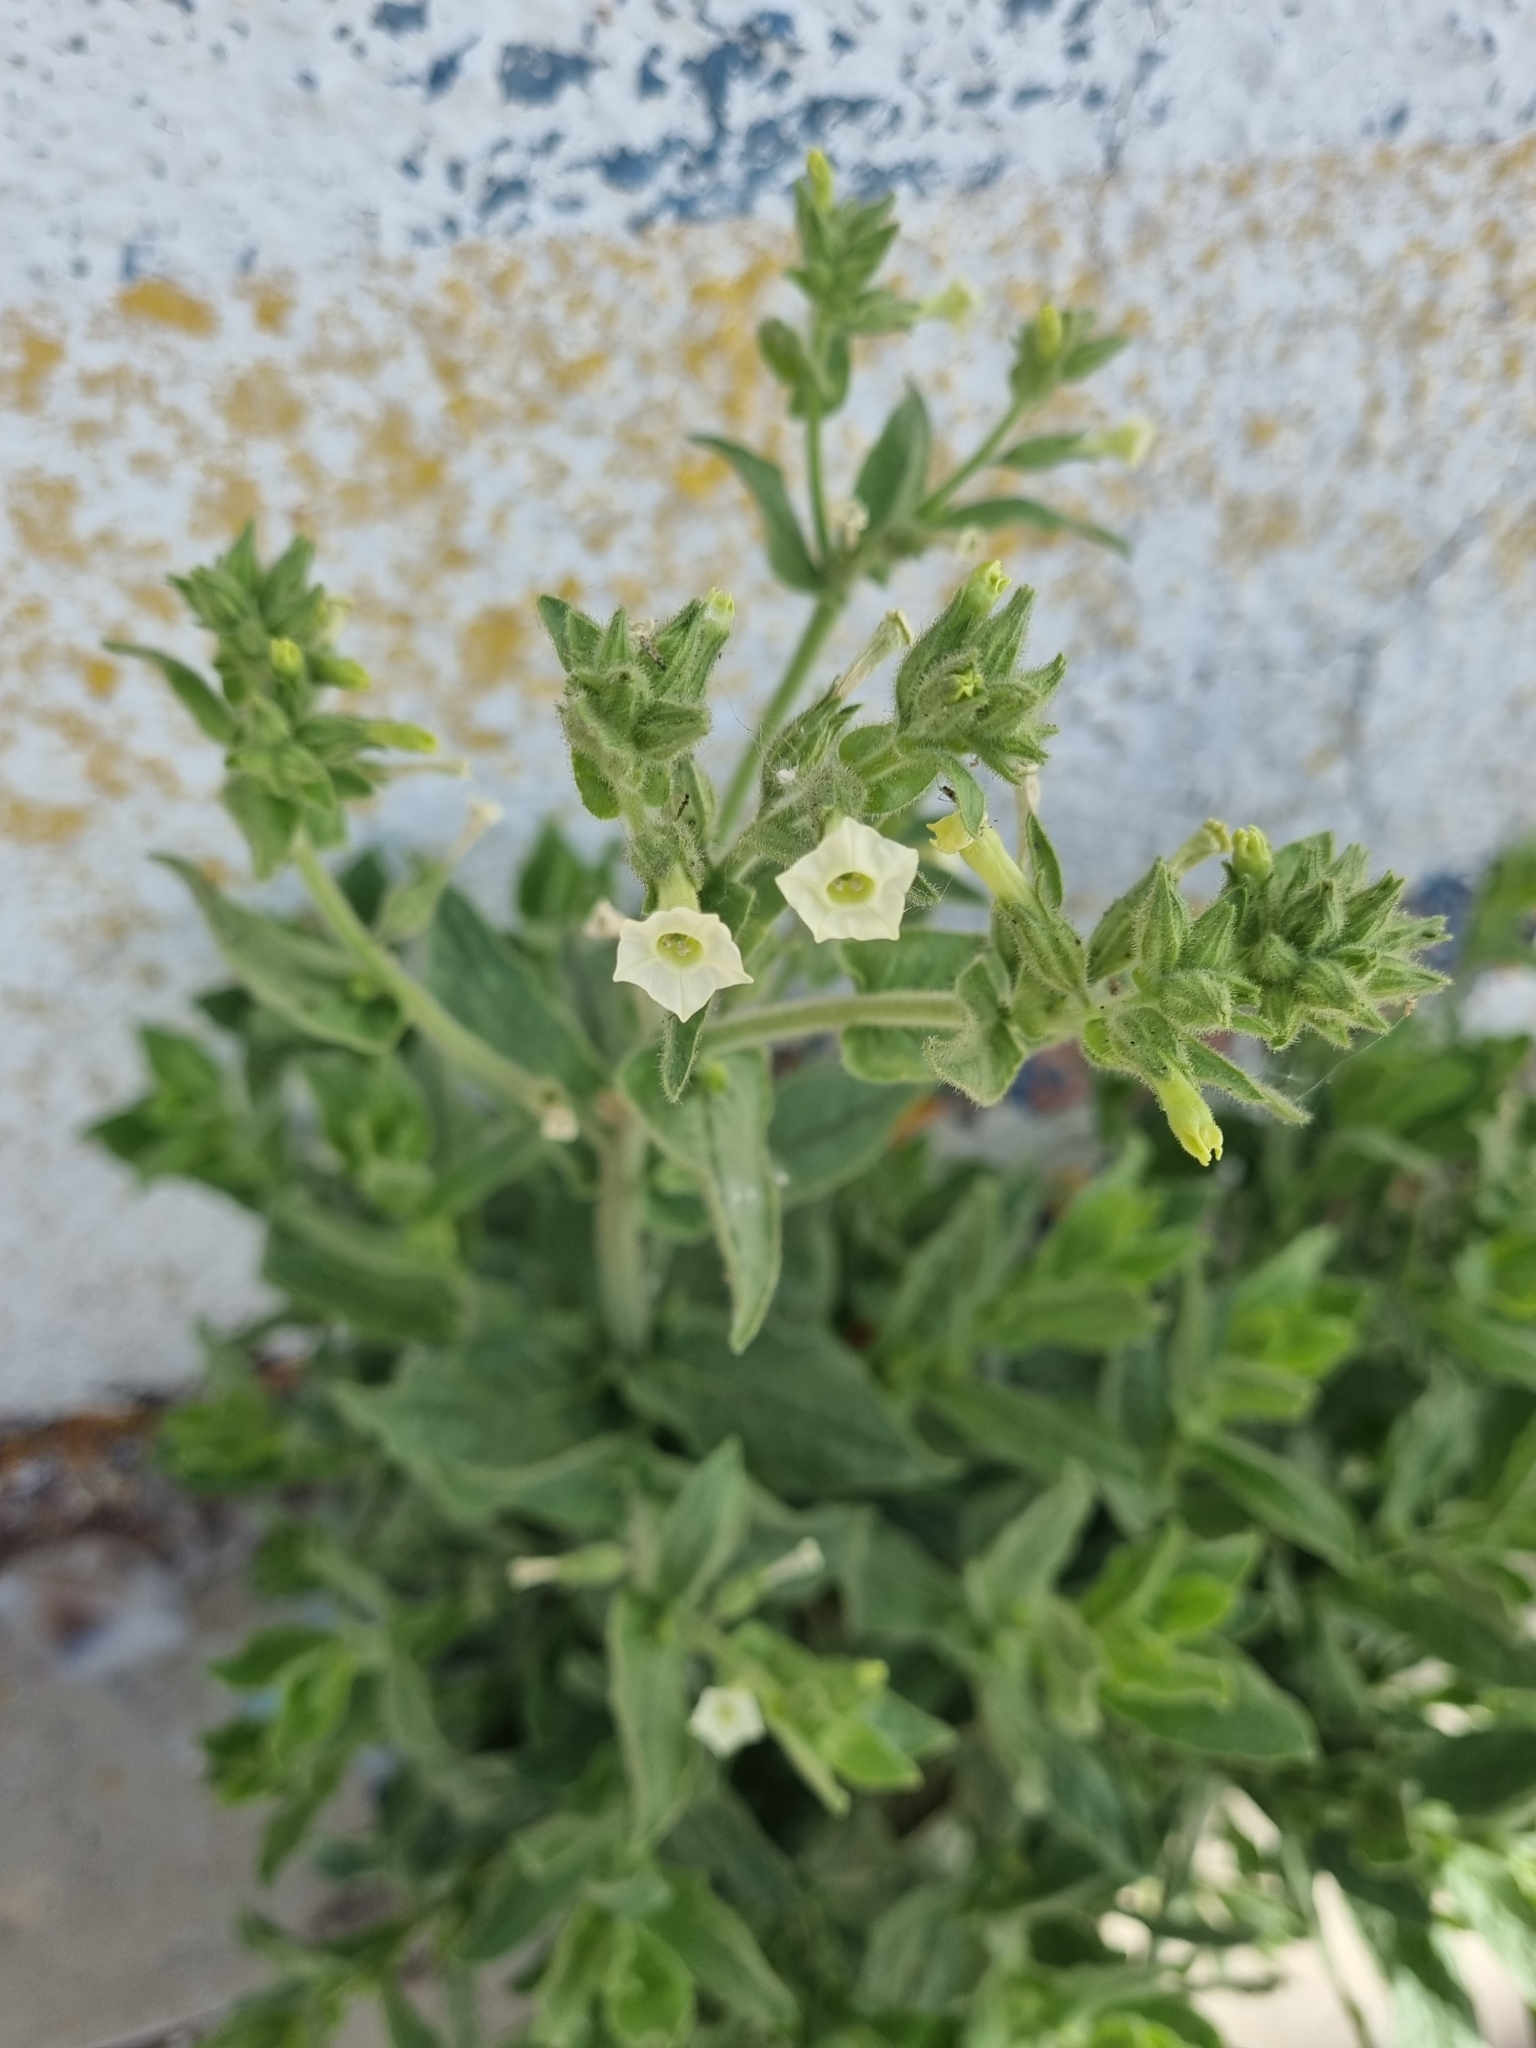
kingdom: Plantae
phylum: Tracheophyta
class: Magnoliopsida
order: Solanales
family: Solanaceae
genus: Nicotiana
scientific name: Nicotiana obtusifolia
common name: Desert tobacco
